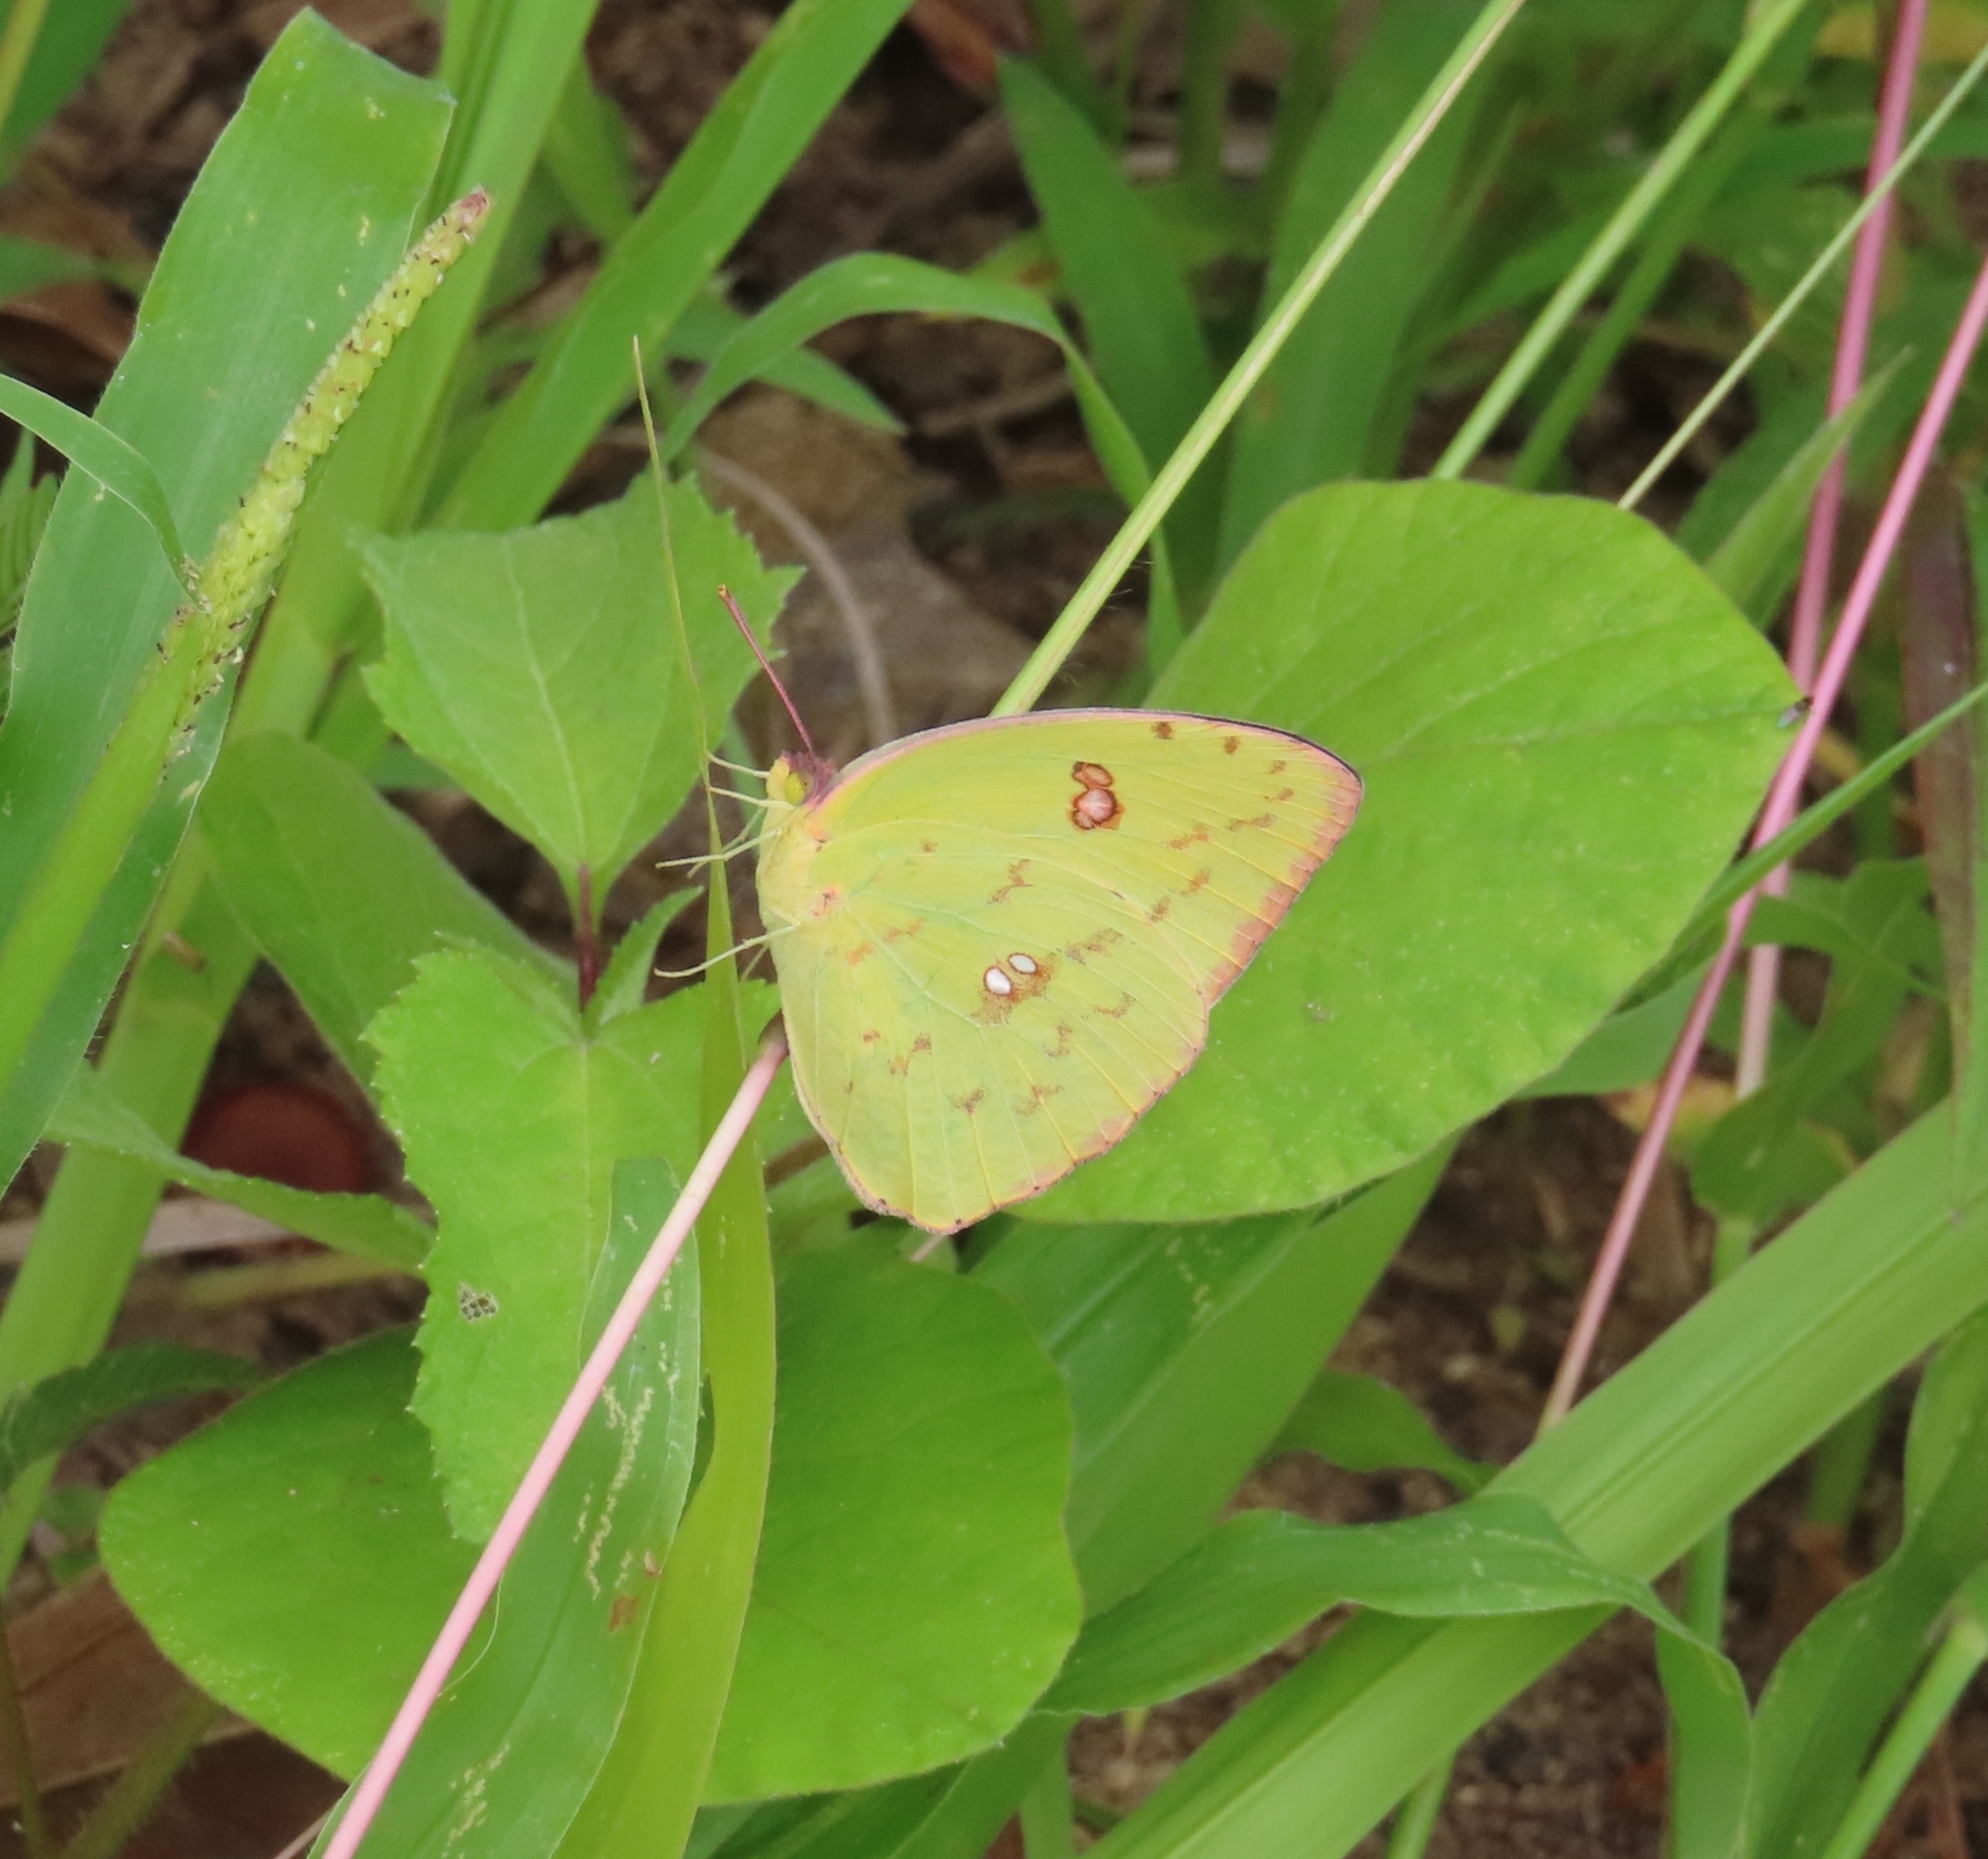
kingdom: Animalia
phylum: Arthropoda
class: Insecta
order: Lepidoptera
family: Pieridae
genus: Phoebis
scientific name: Phoebis sennae
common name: Cloudless sulphur
